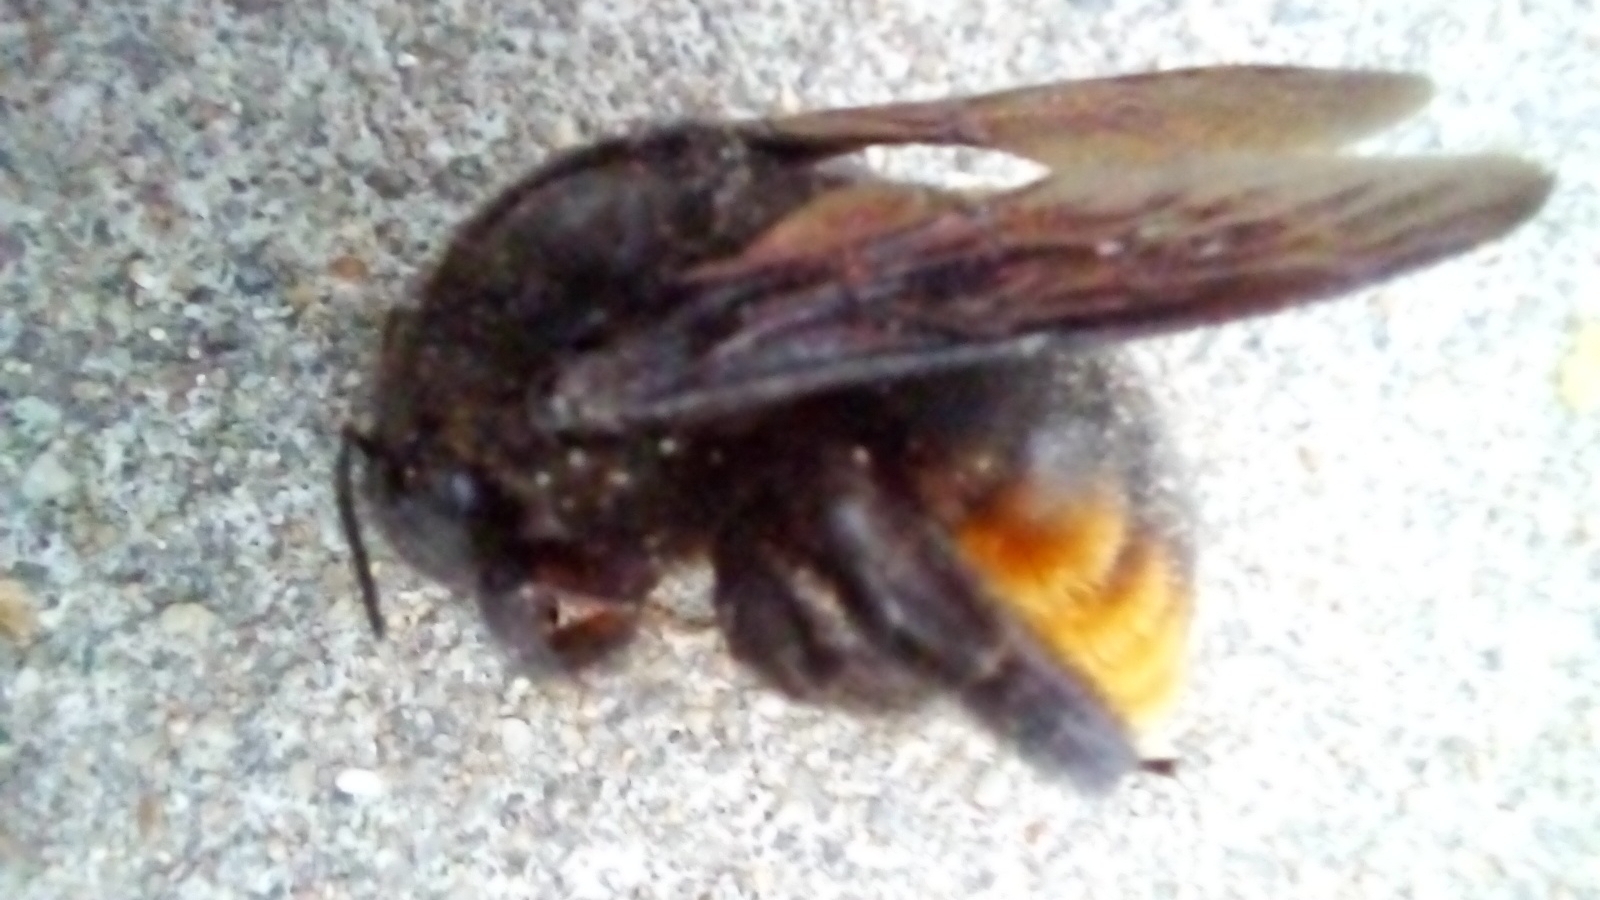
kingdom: Animalia
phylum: Arthropoda
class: Insecta
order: Hymenoptera
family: Apidae
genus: Xylocopa
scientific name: Xylocopa augusti
